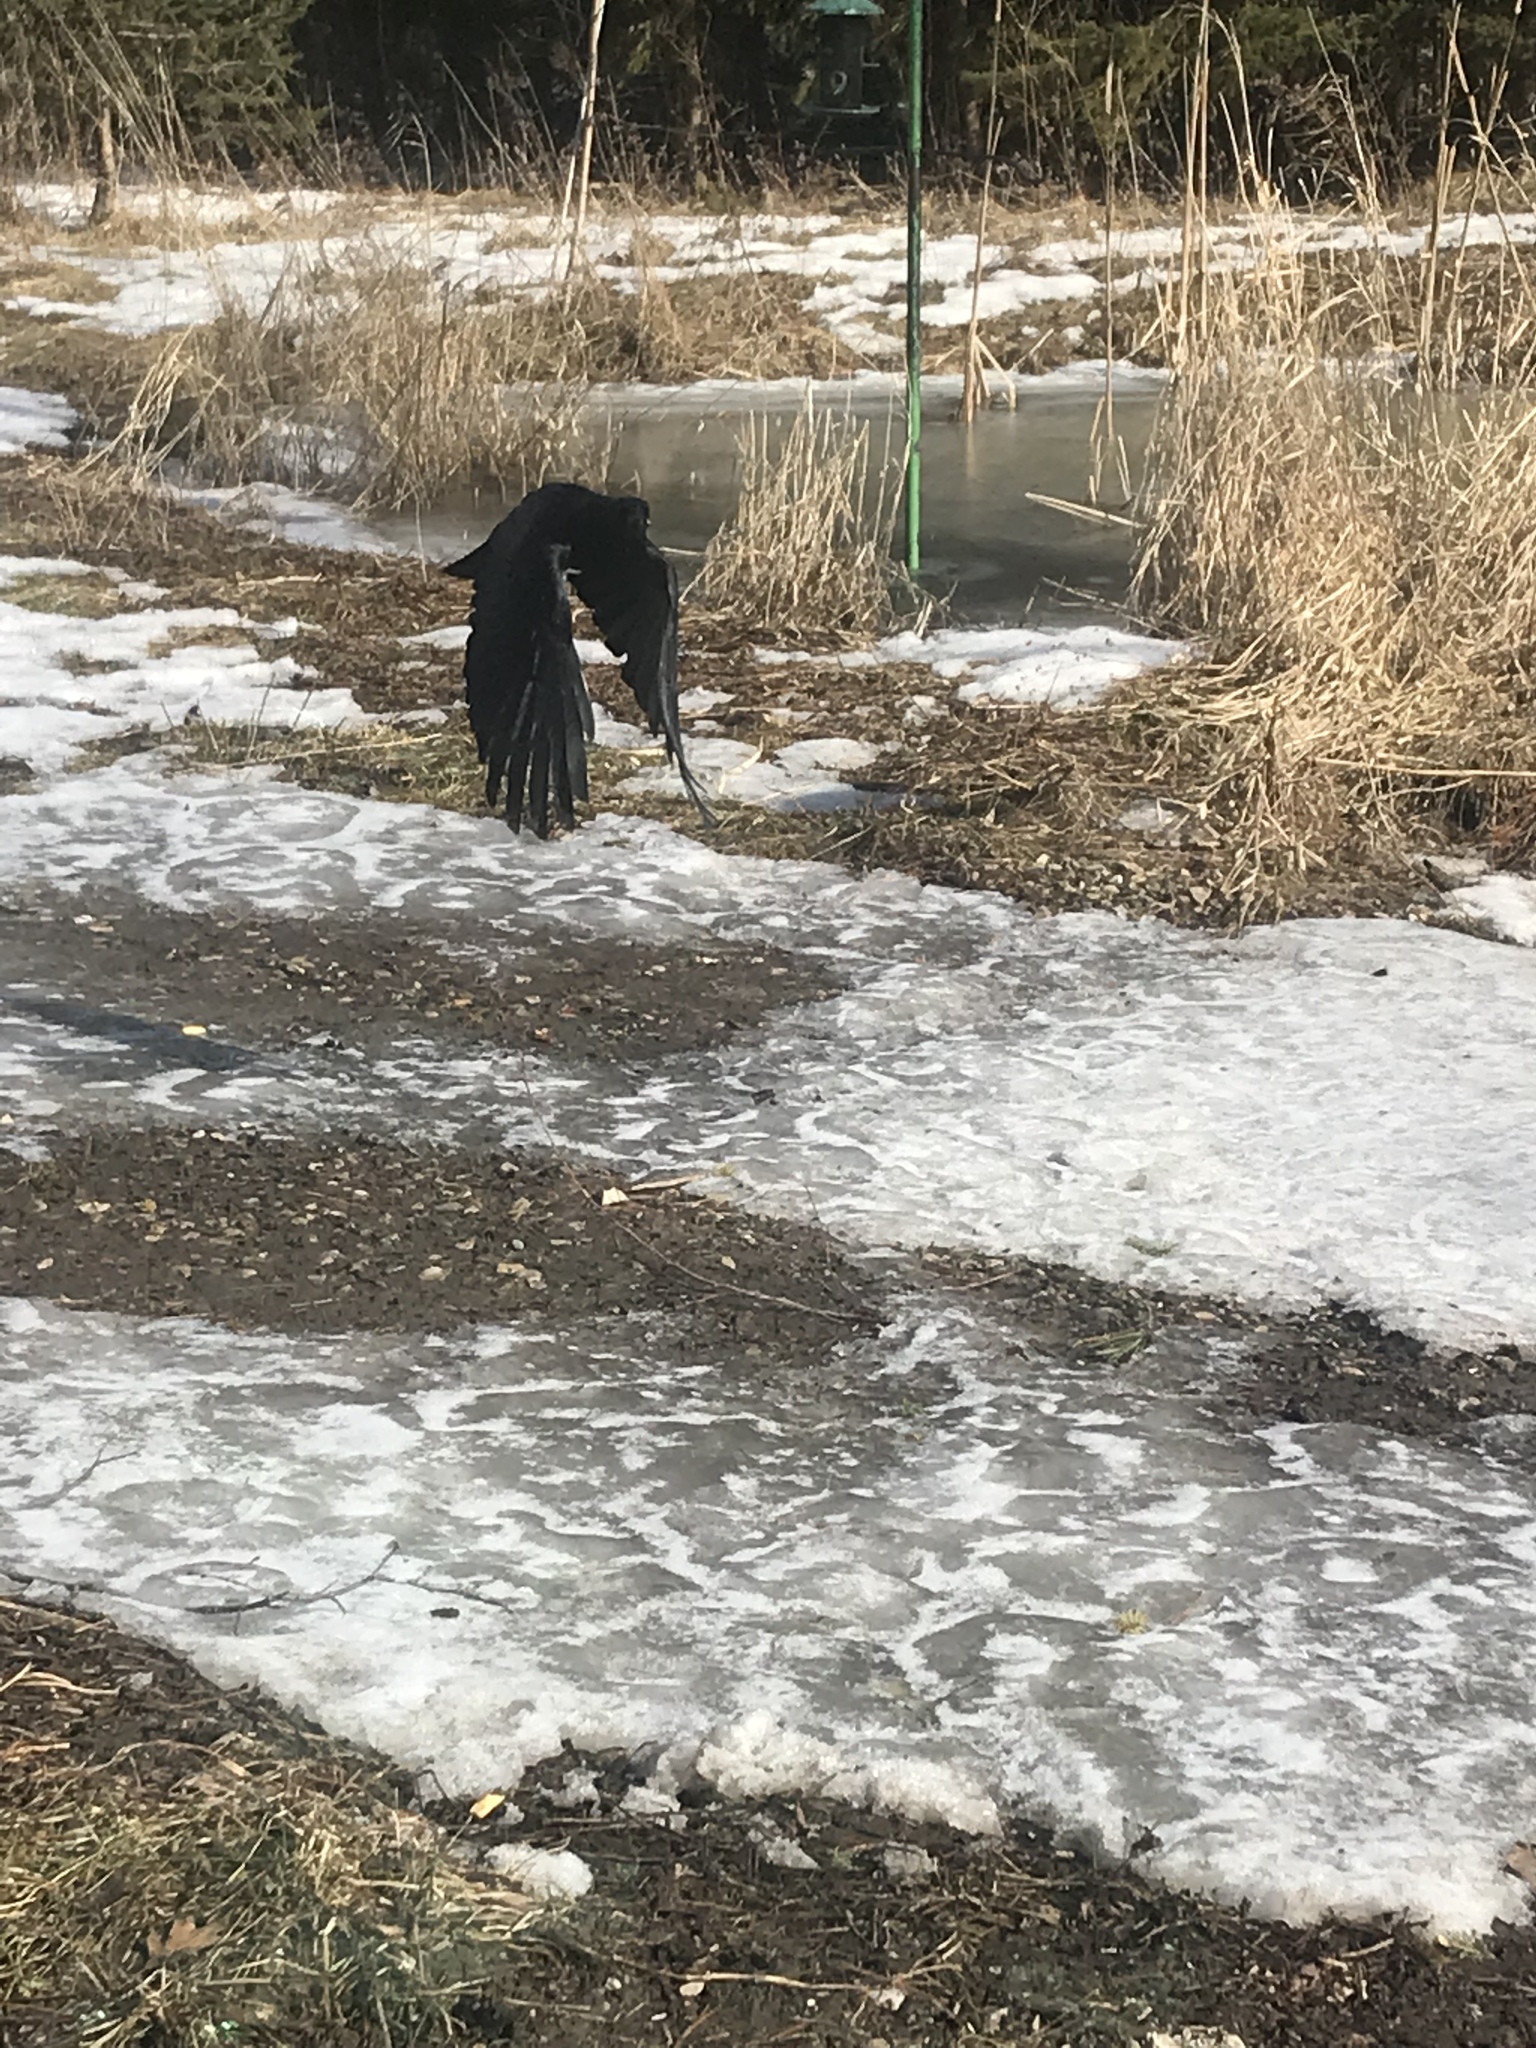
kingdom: Animalia
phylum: Chordata
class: Aves
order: Passeriformes
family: Corvidae
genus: Corvus
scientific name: Corvus brachyrhynchos
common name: American crow
